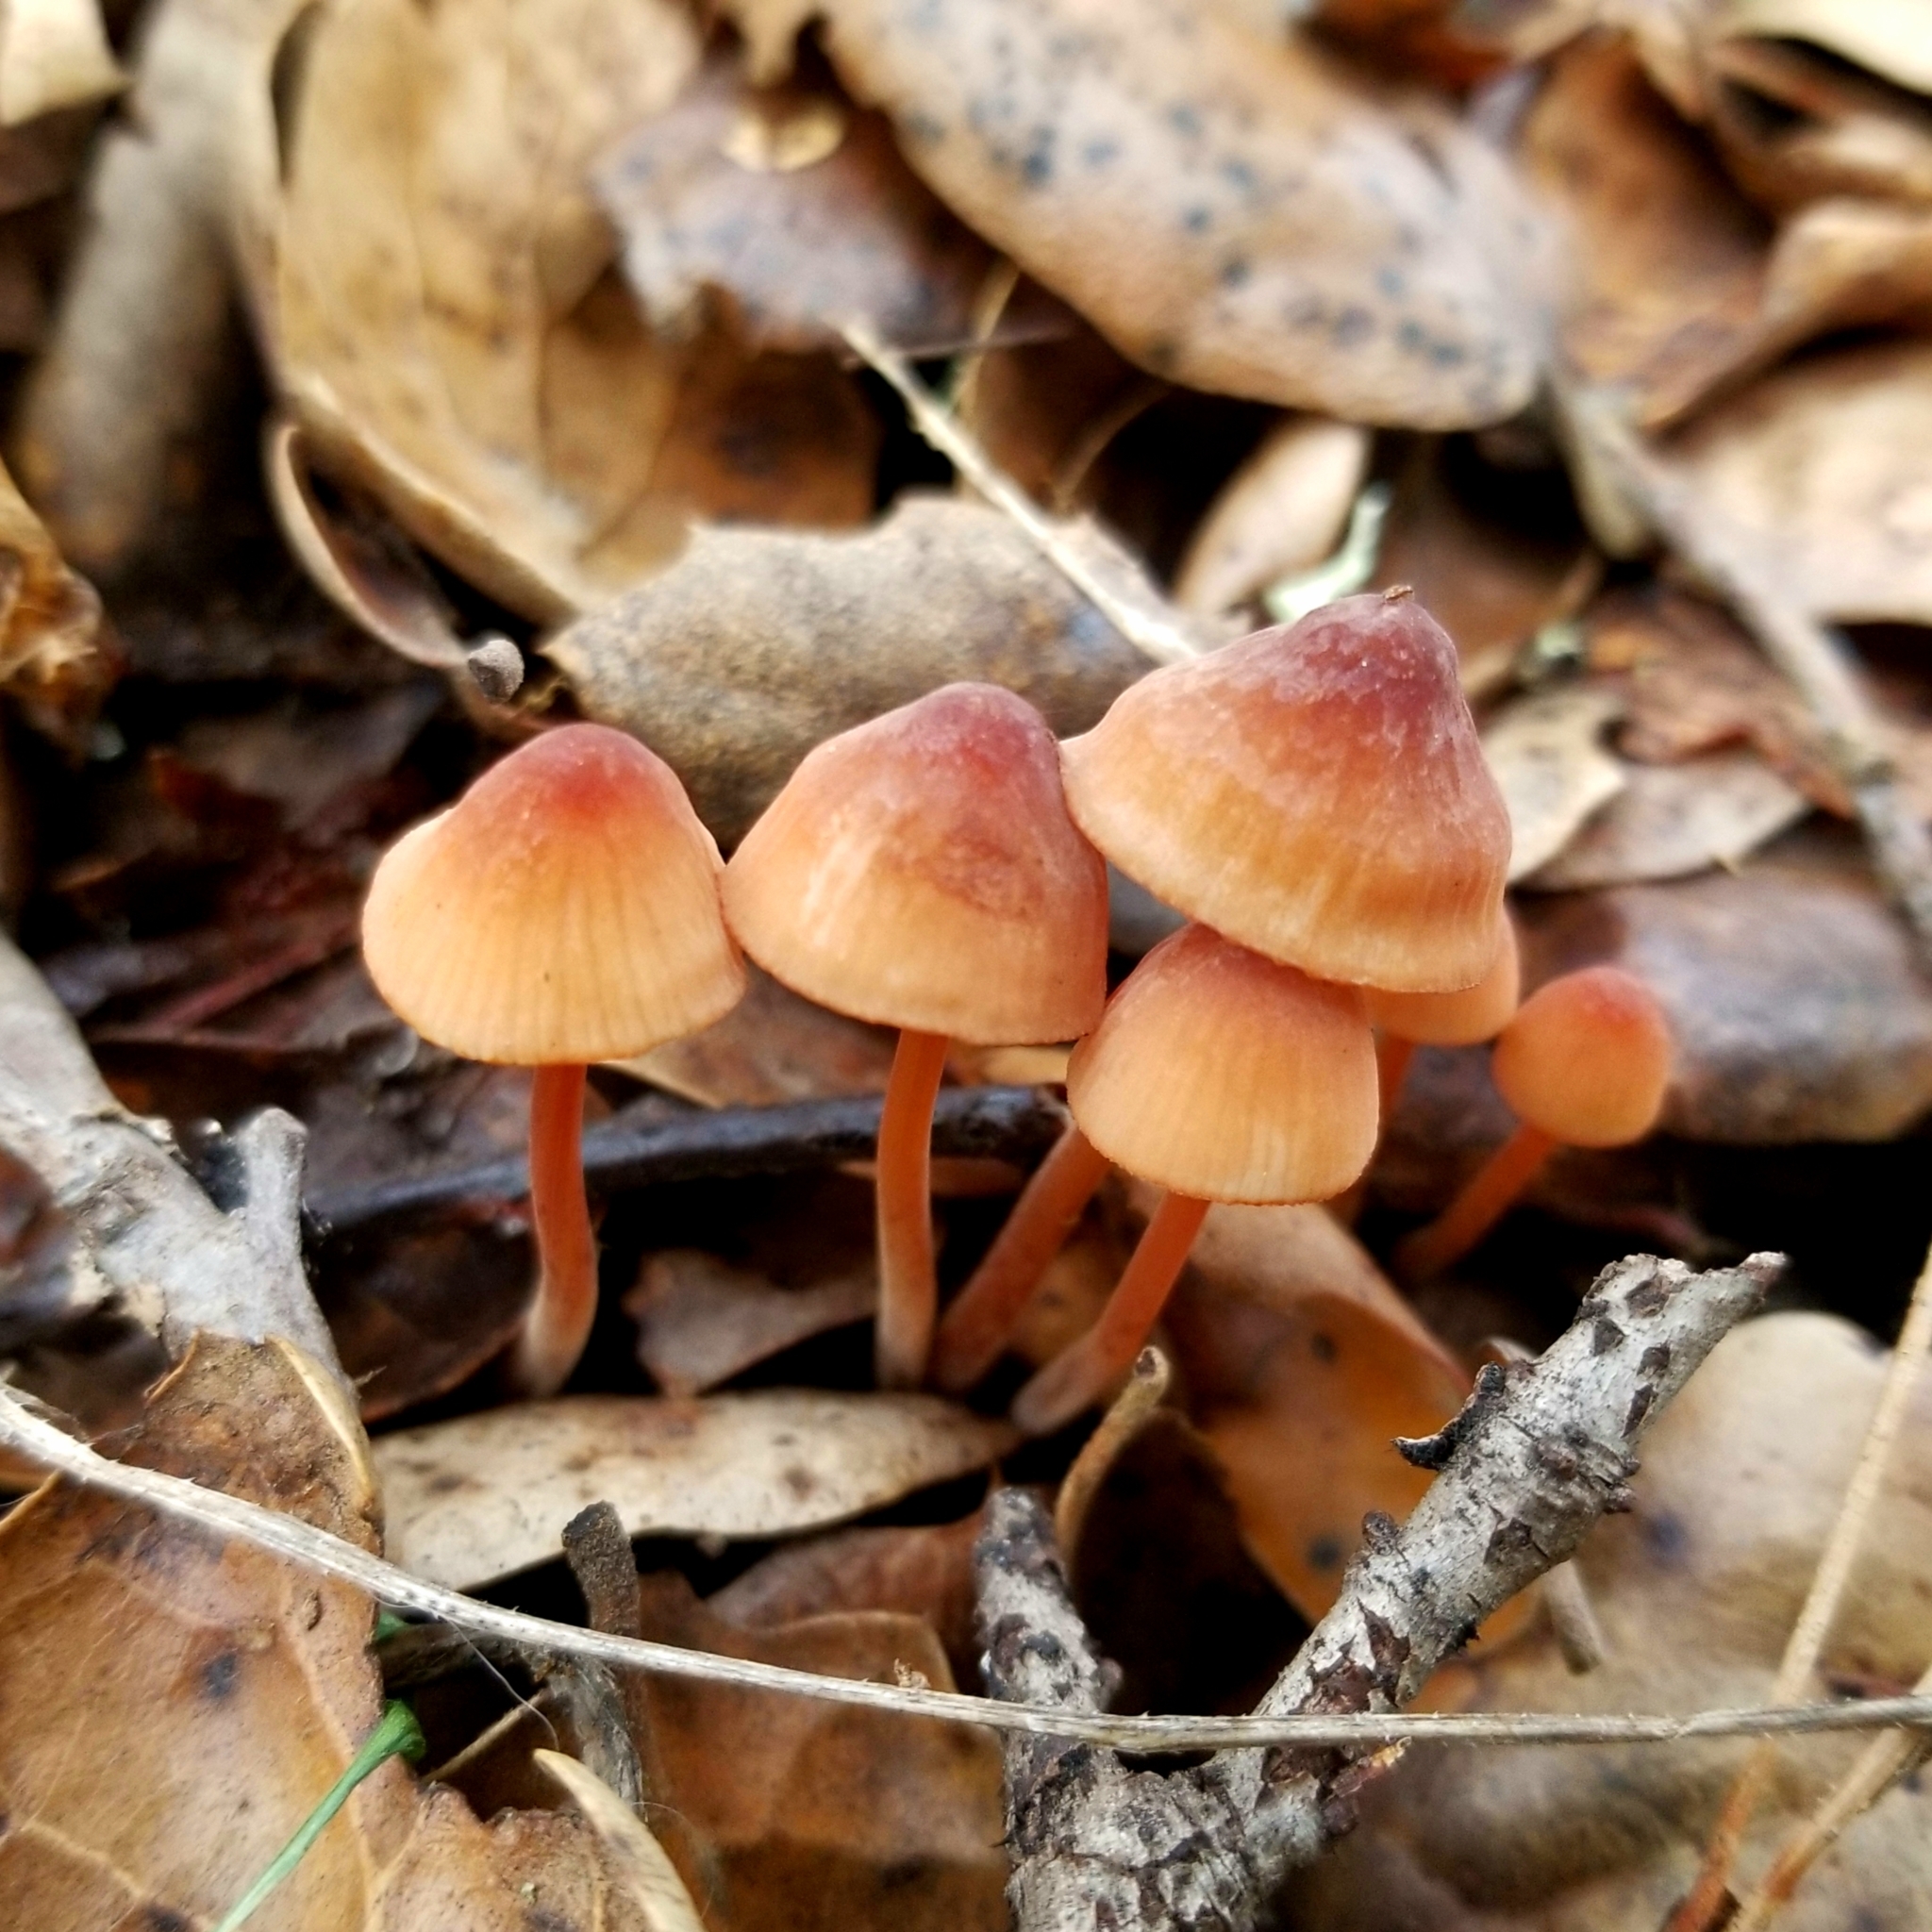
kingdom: Fungi
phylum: Basidiomycota
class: Agaricomycetes
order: Agaricales
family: Mycenaceae
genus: Mycena
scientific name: Mycena
